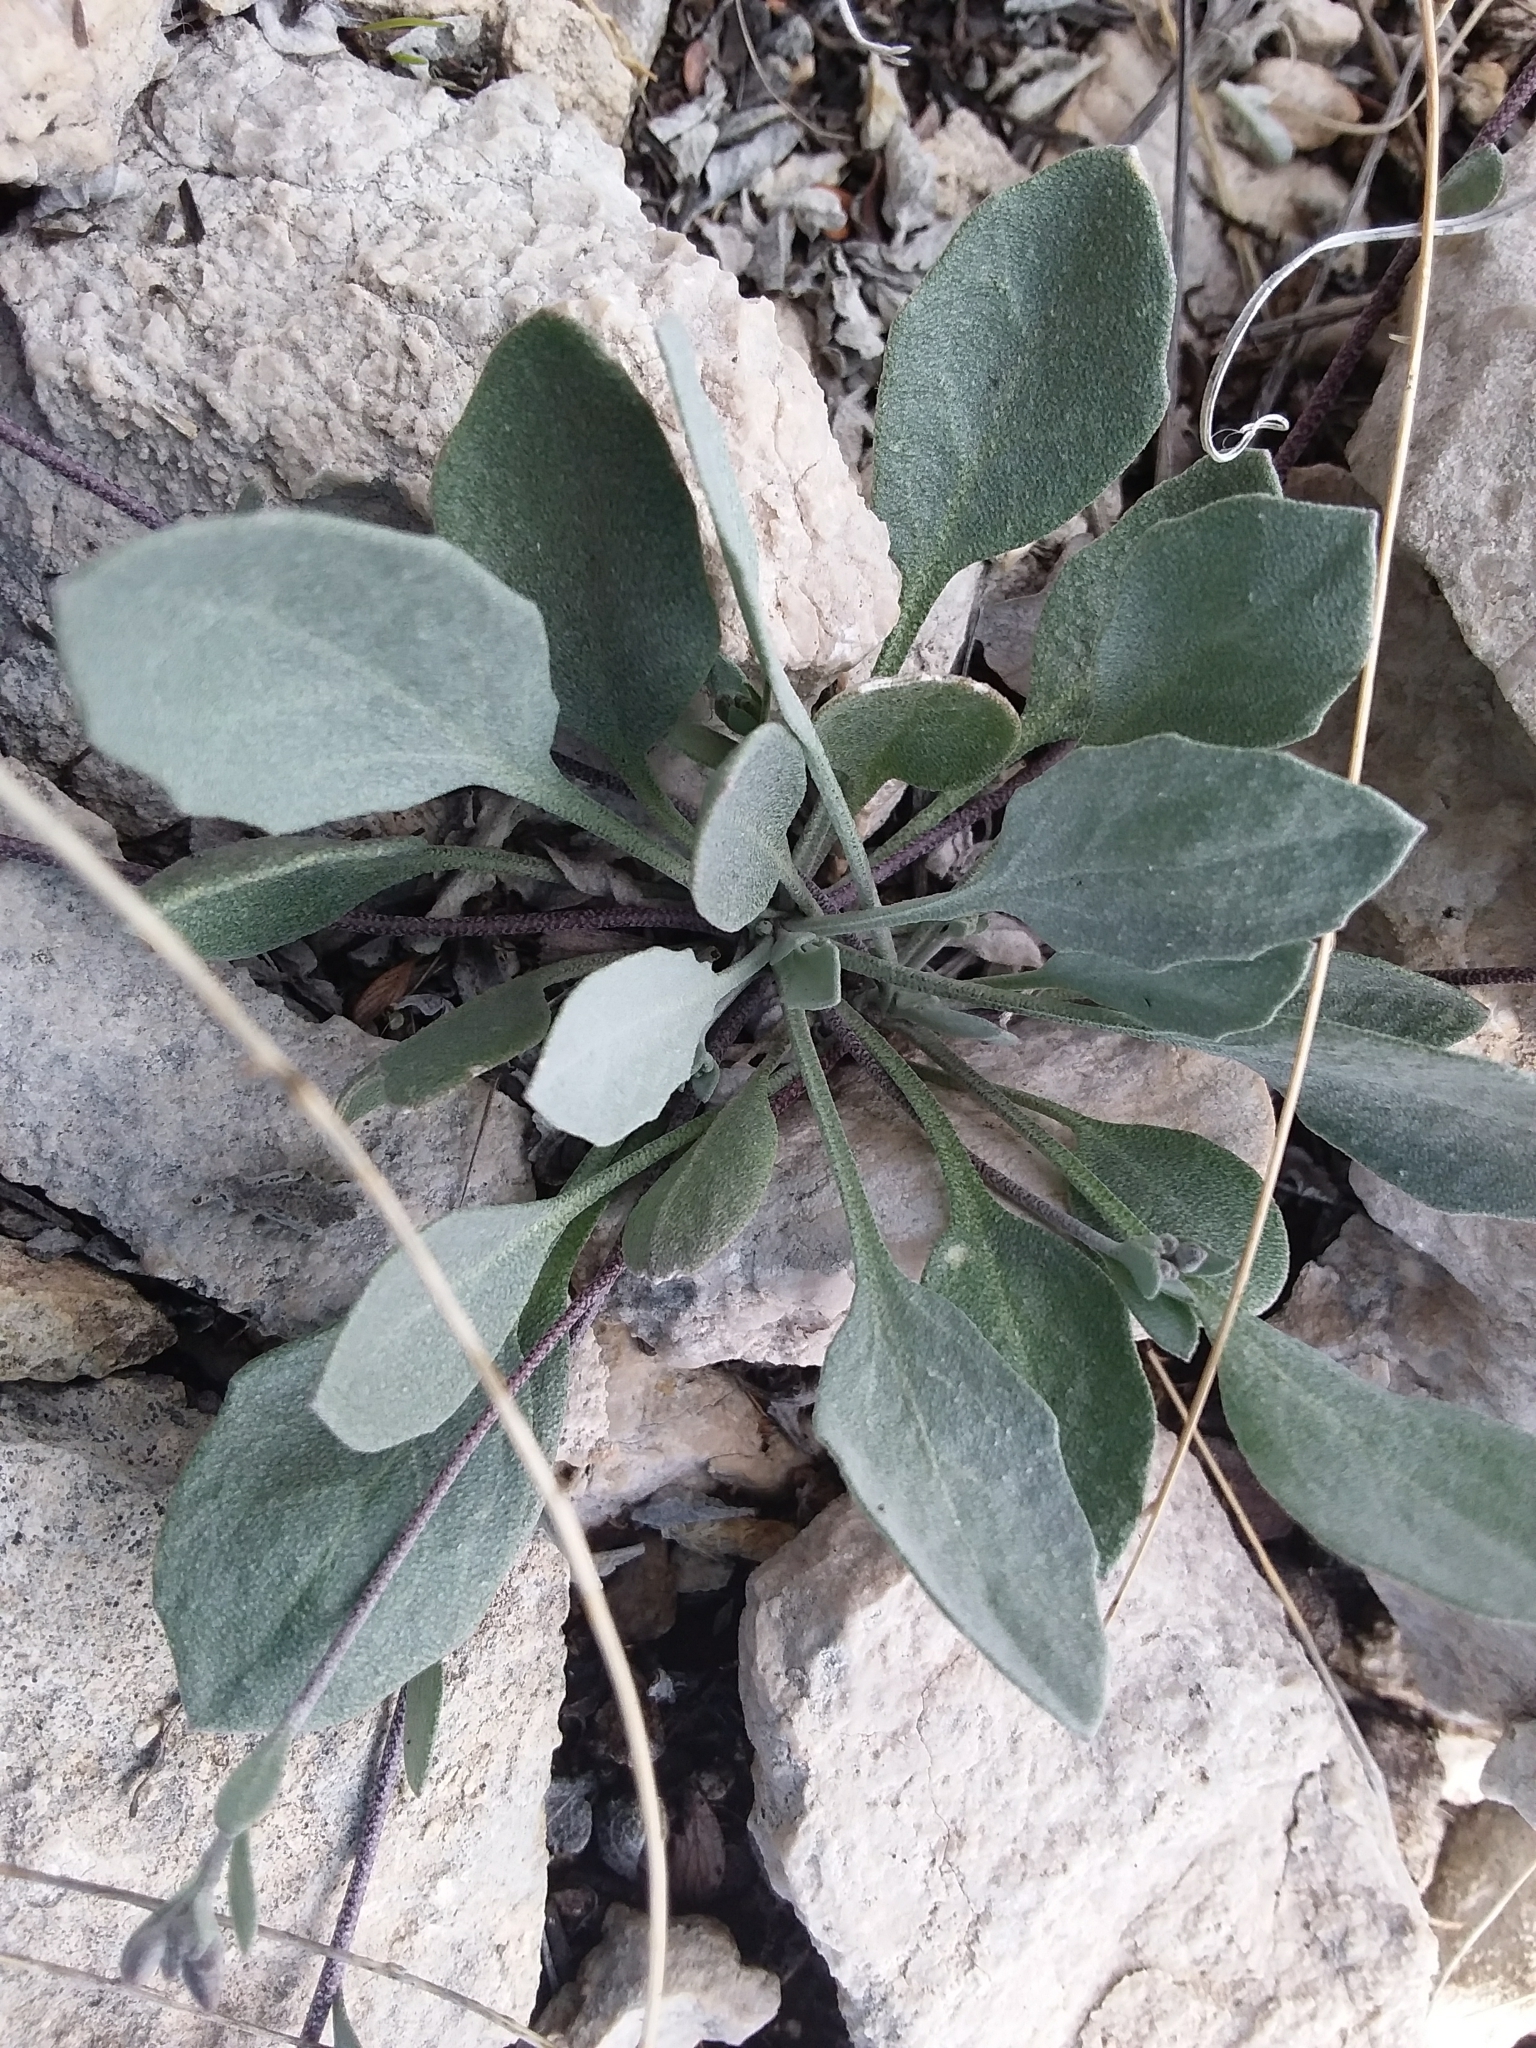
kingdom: Plantae
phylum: Tracheophyta
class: Magnoliopsida
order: Brassicales
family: Brassicaceae
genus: Physaria
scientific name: Physaria purpurea
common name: Rose bladderpod
